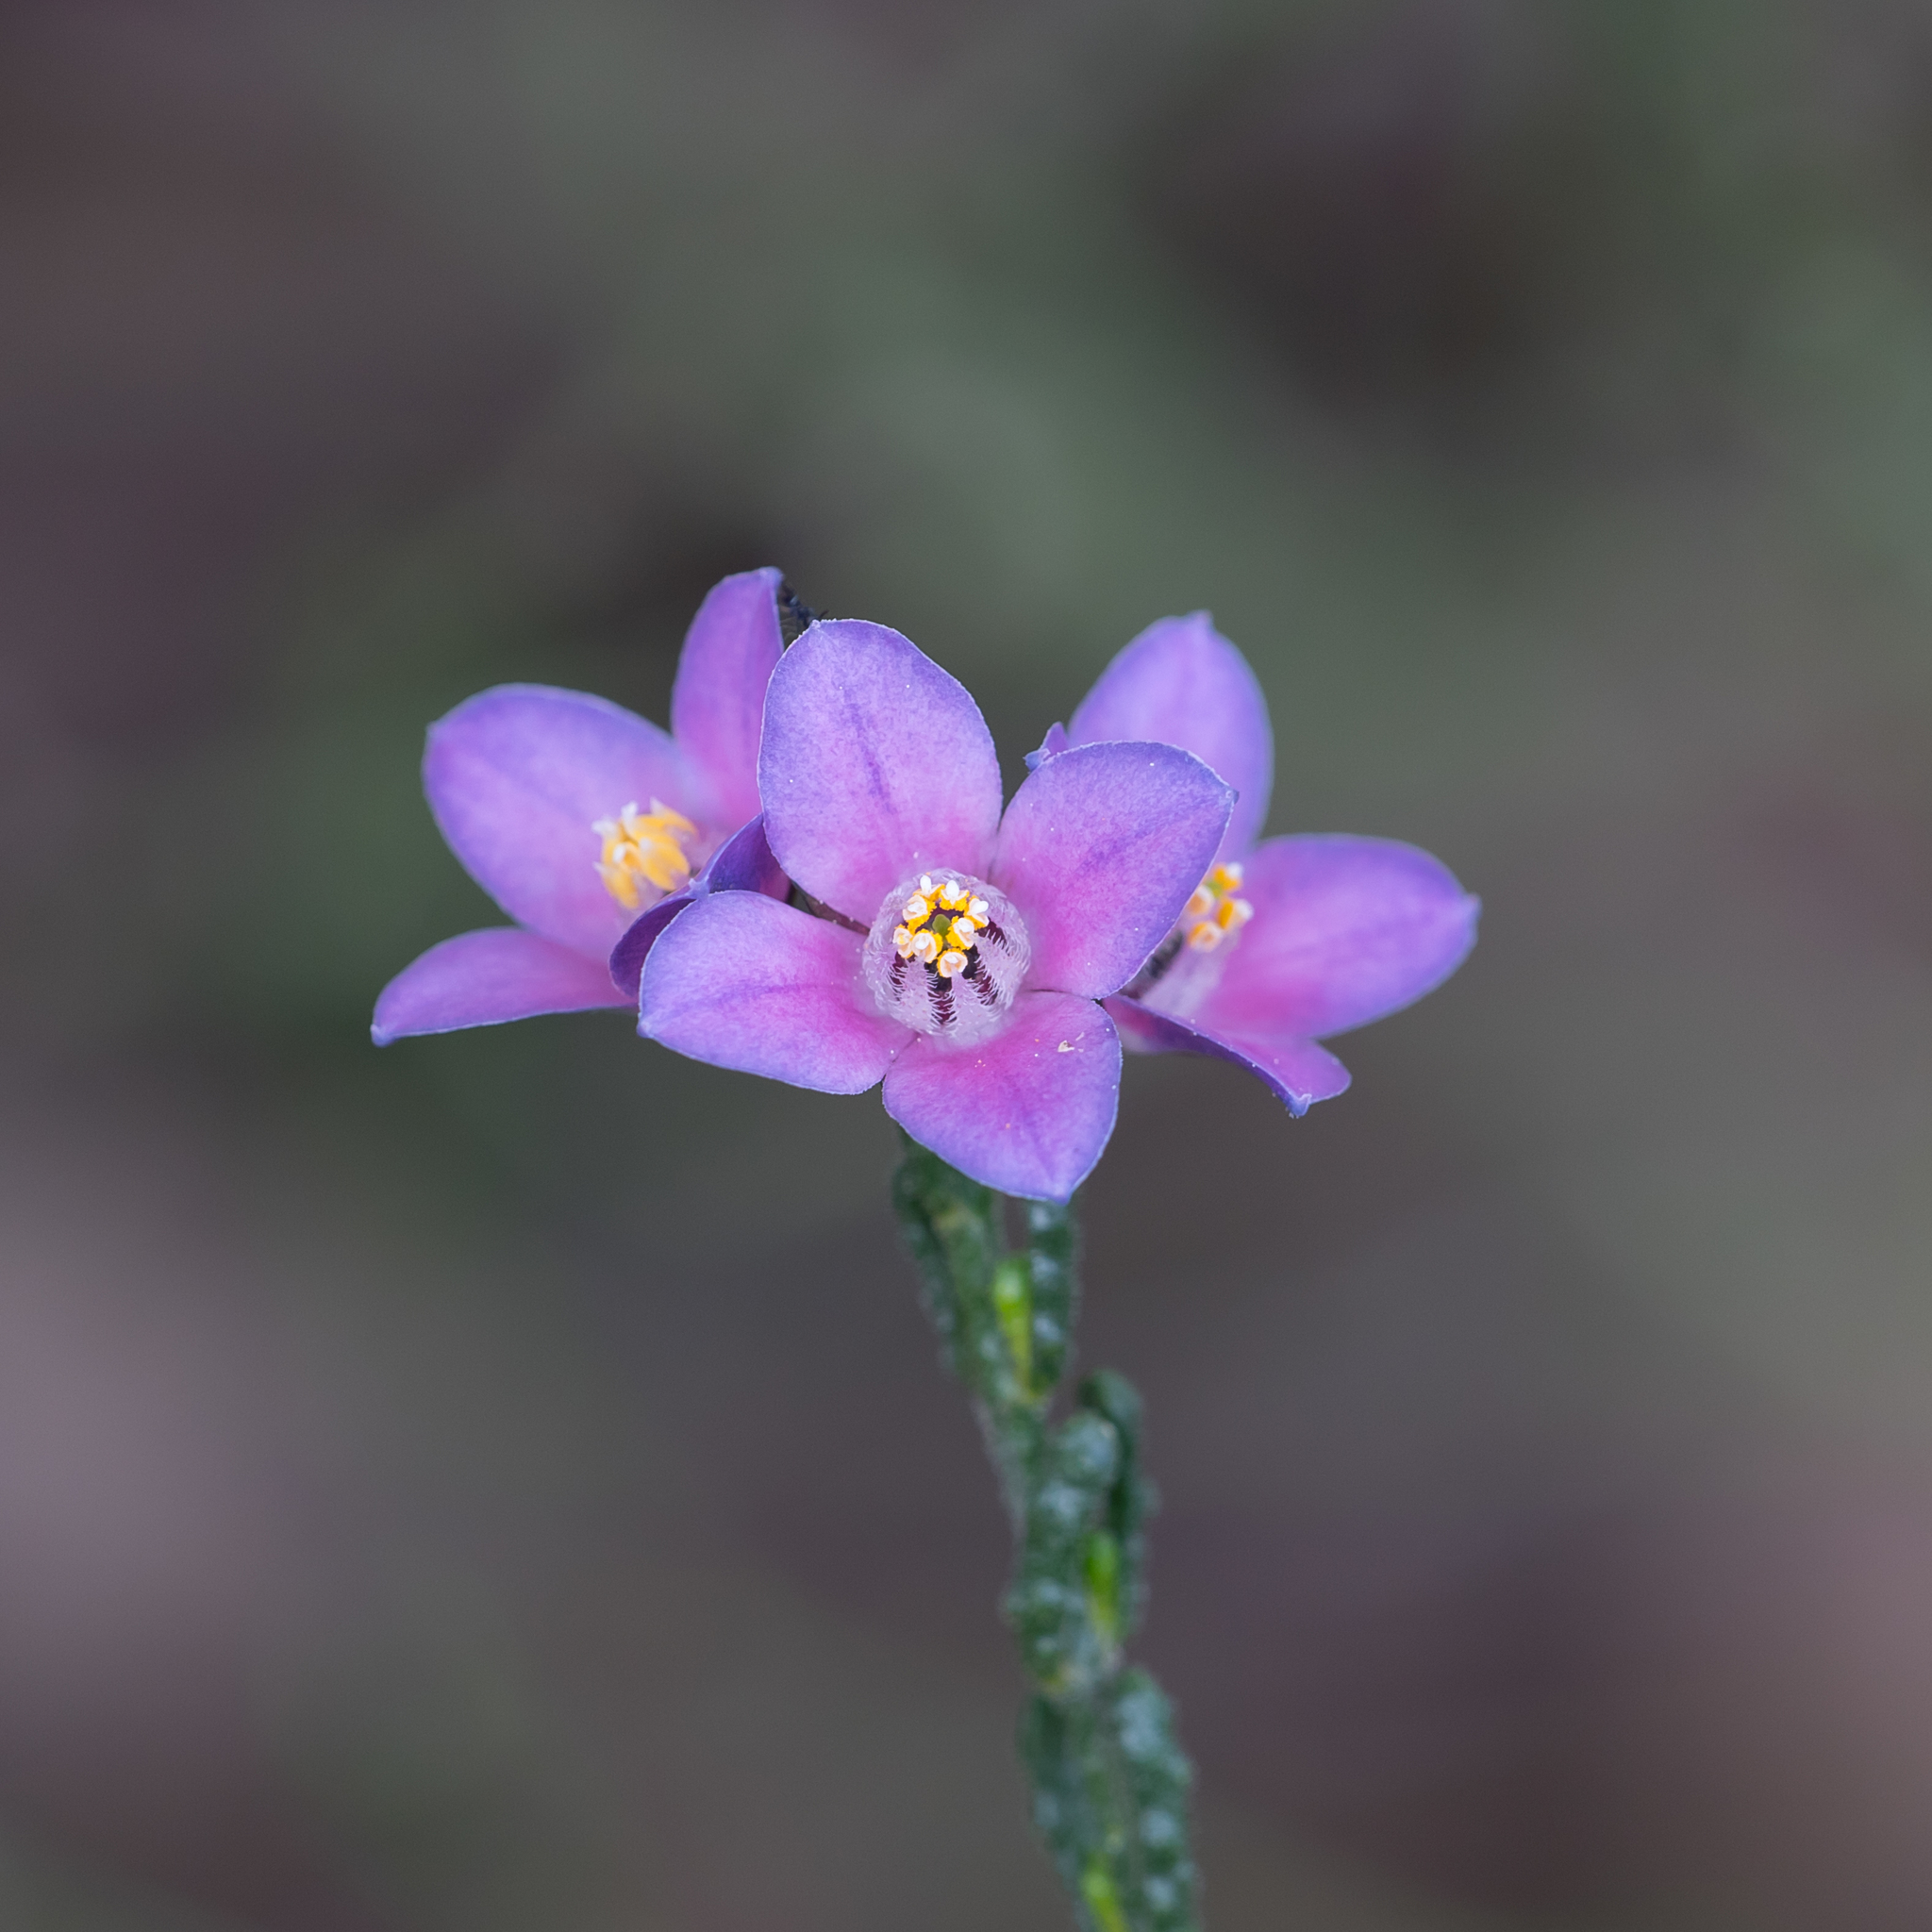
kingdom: Plantae
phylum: Tracheophyta
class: Magnoliopsida
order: Sapindales
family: Rutaceae
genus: Cyanothamnus
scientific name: Cyanothamnus coerulescens
